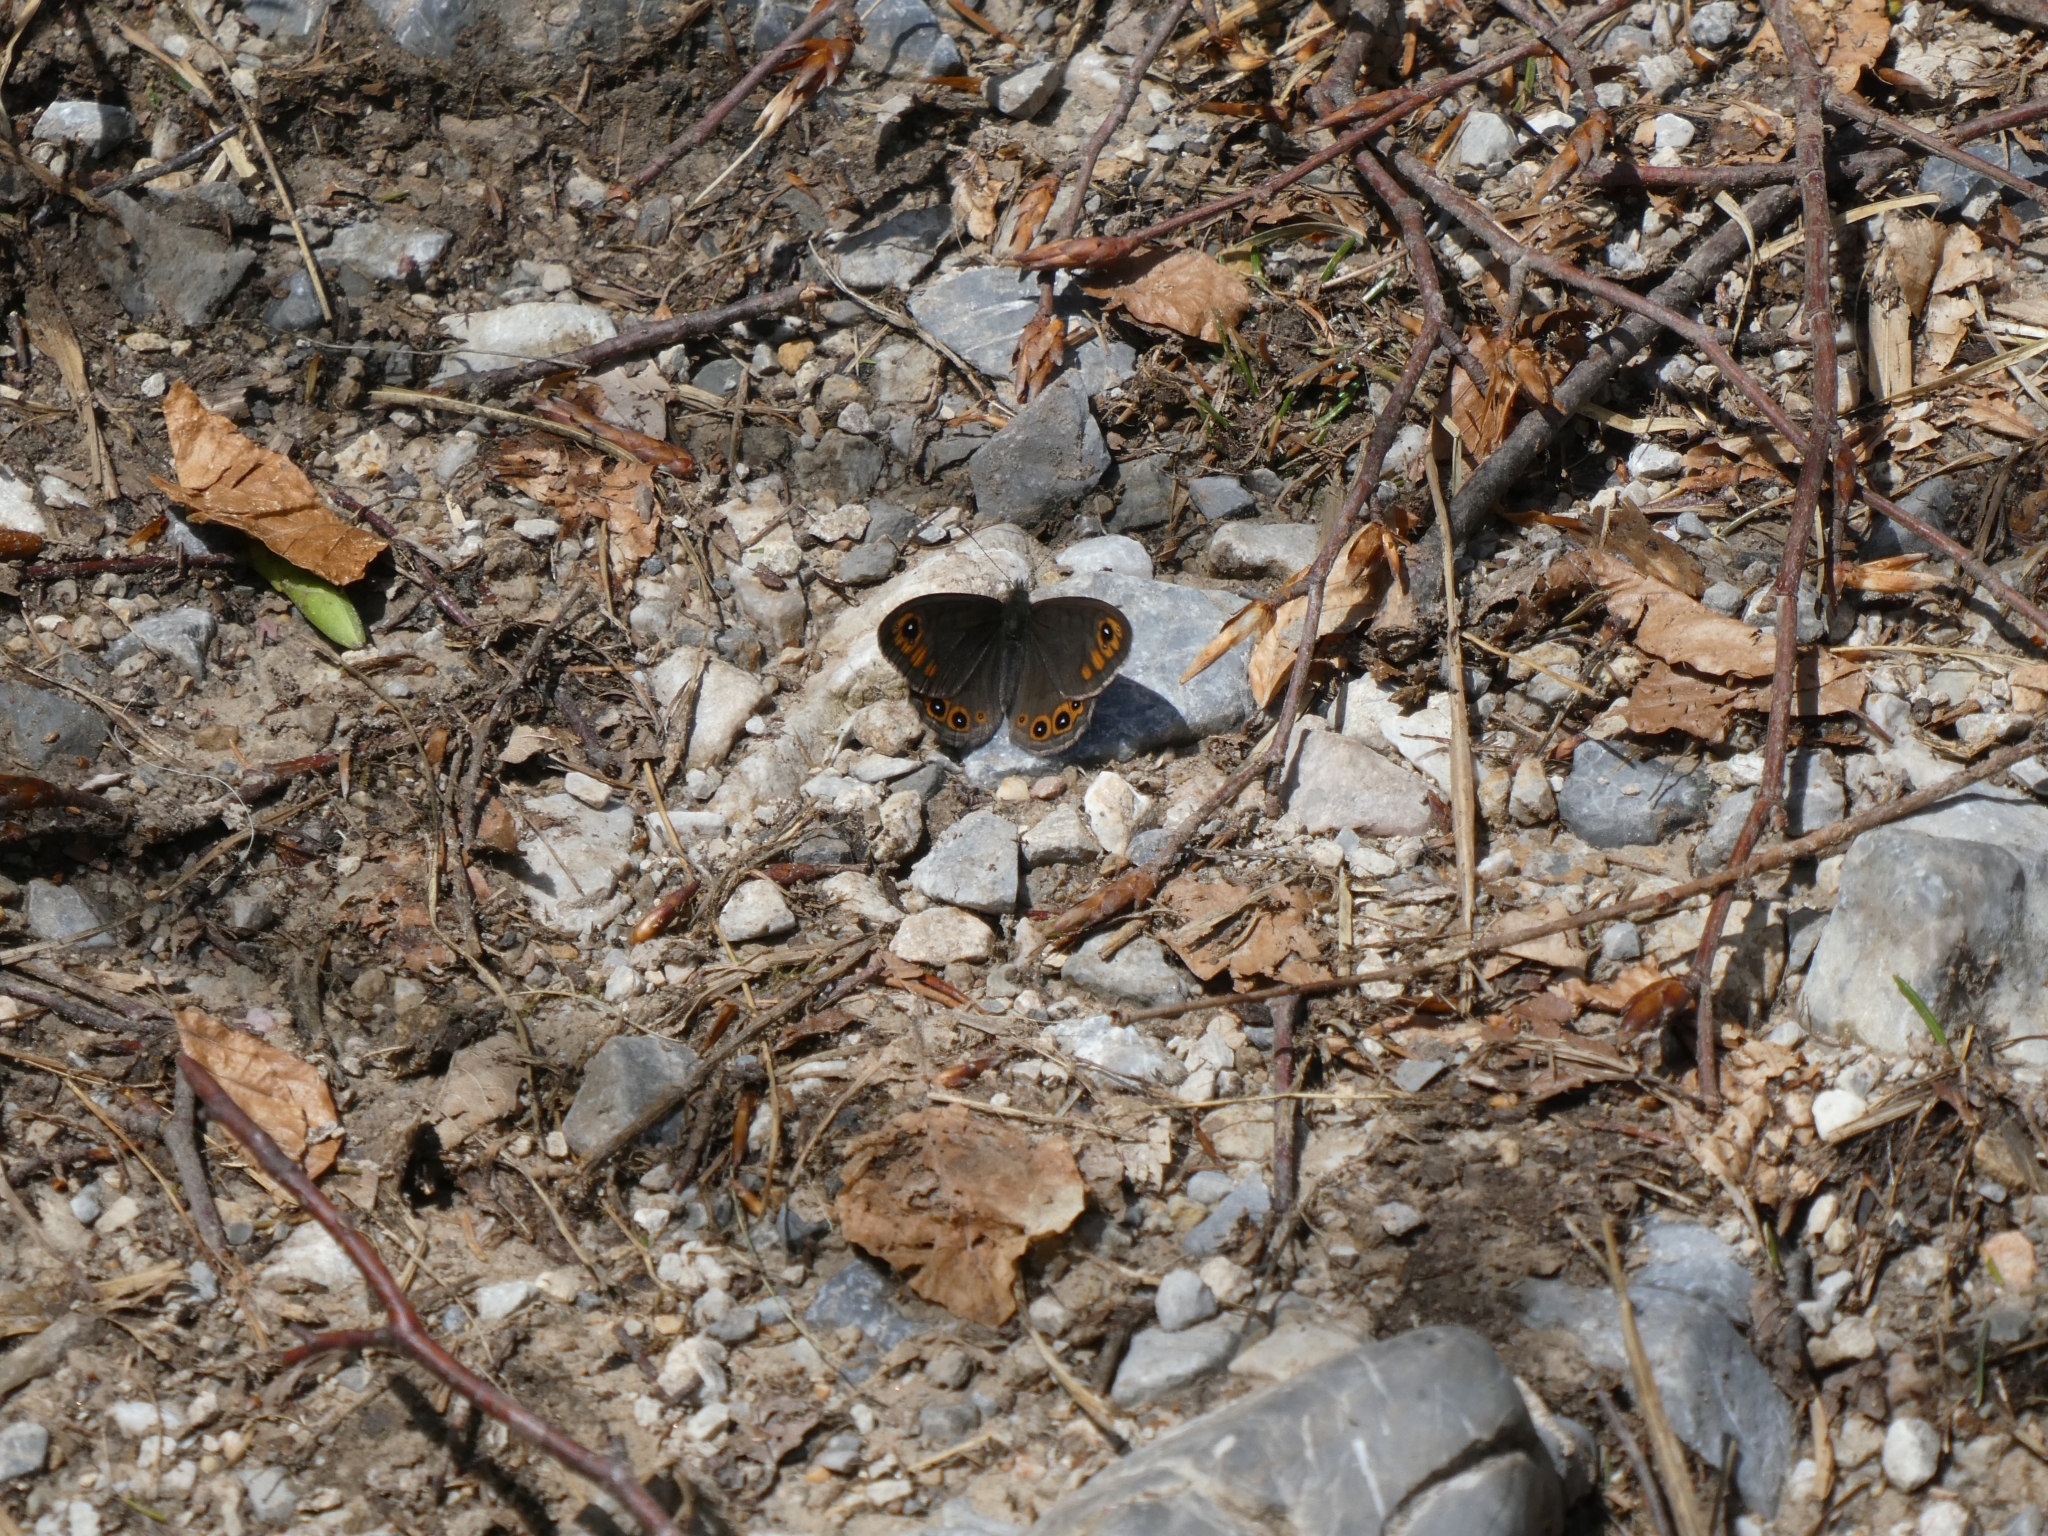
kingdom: Animalia
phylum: Arthropoda
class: Insecta
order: Lepidoptera
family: Nymphalidae
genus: Pararge
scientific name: Pararge petropolitana
